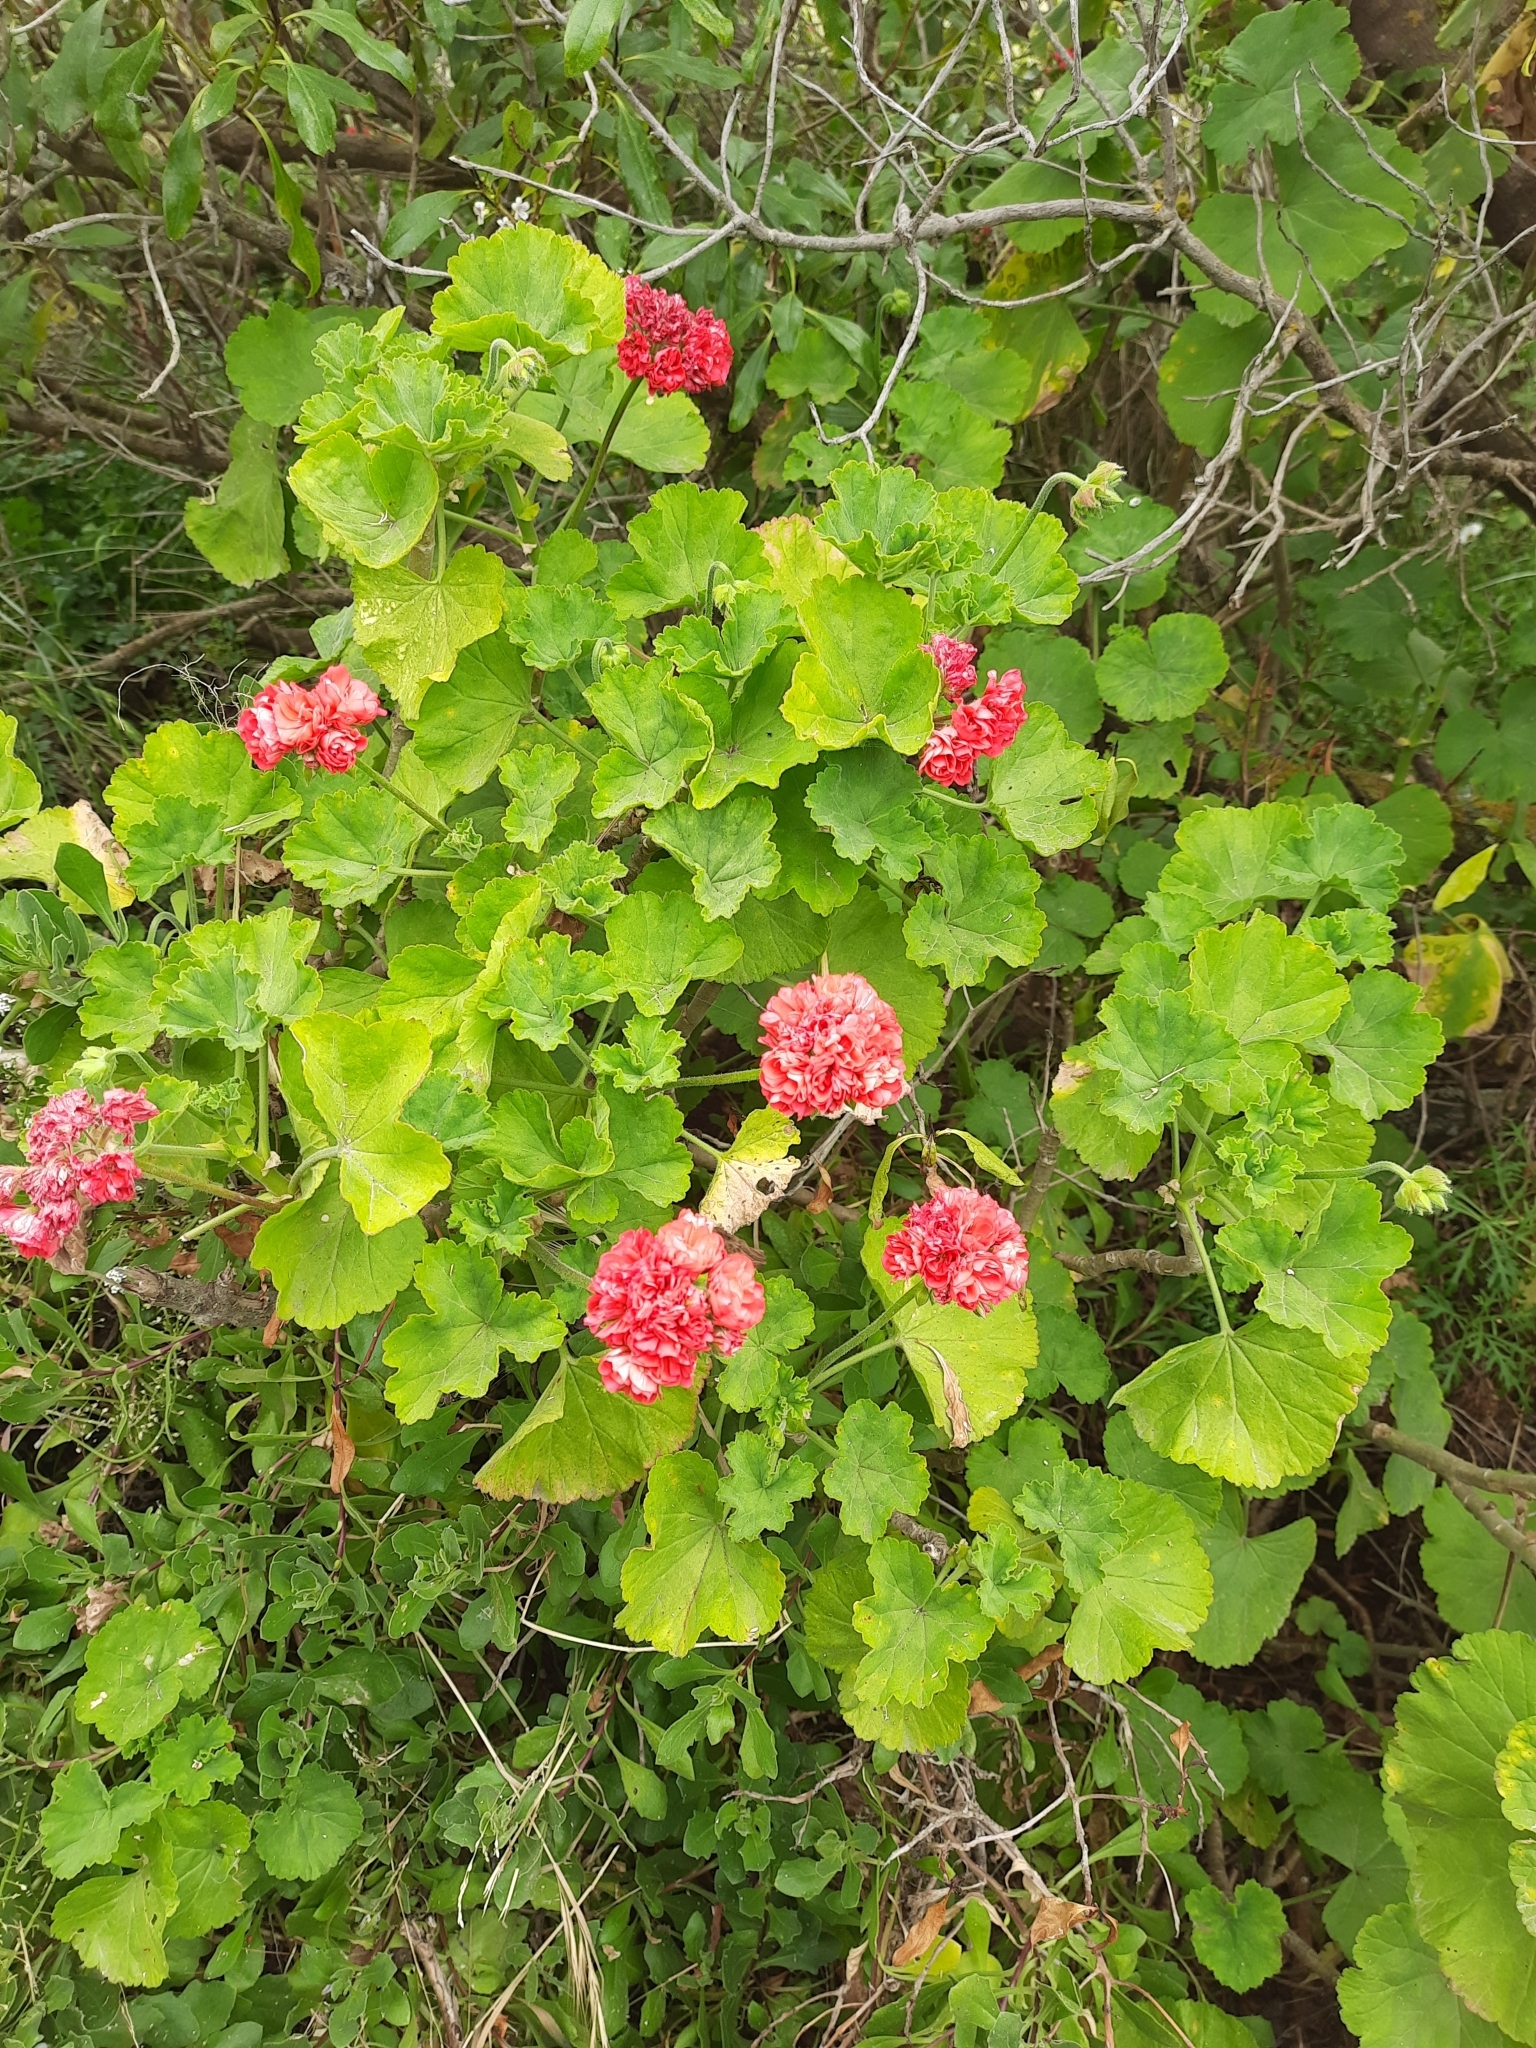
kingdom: Plantae
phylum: Tracheophyta
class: Magnoliopsida
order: Geraniales
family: Geraniaceae
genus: Pelargonium
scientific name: Pelargonium hybridum
